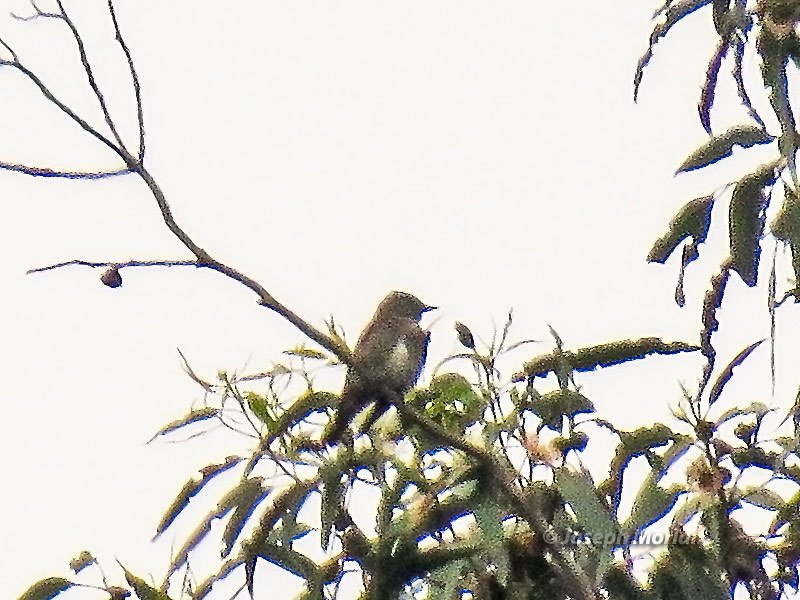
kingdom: Animalia
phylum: Chordata
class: Aves
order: Passeriformes
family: Tyrannidae
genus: Contopus
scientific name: Contopus cooperi
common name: Olive-sided flycatcher
